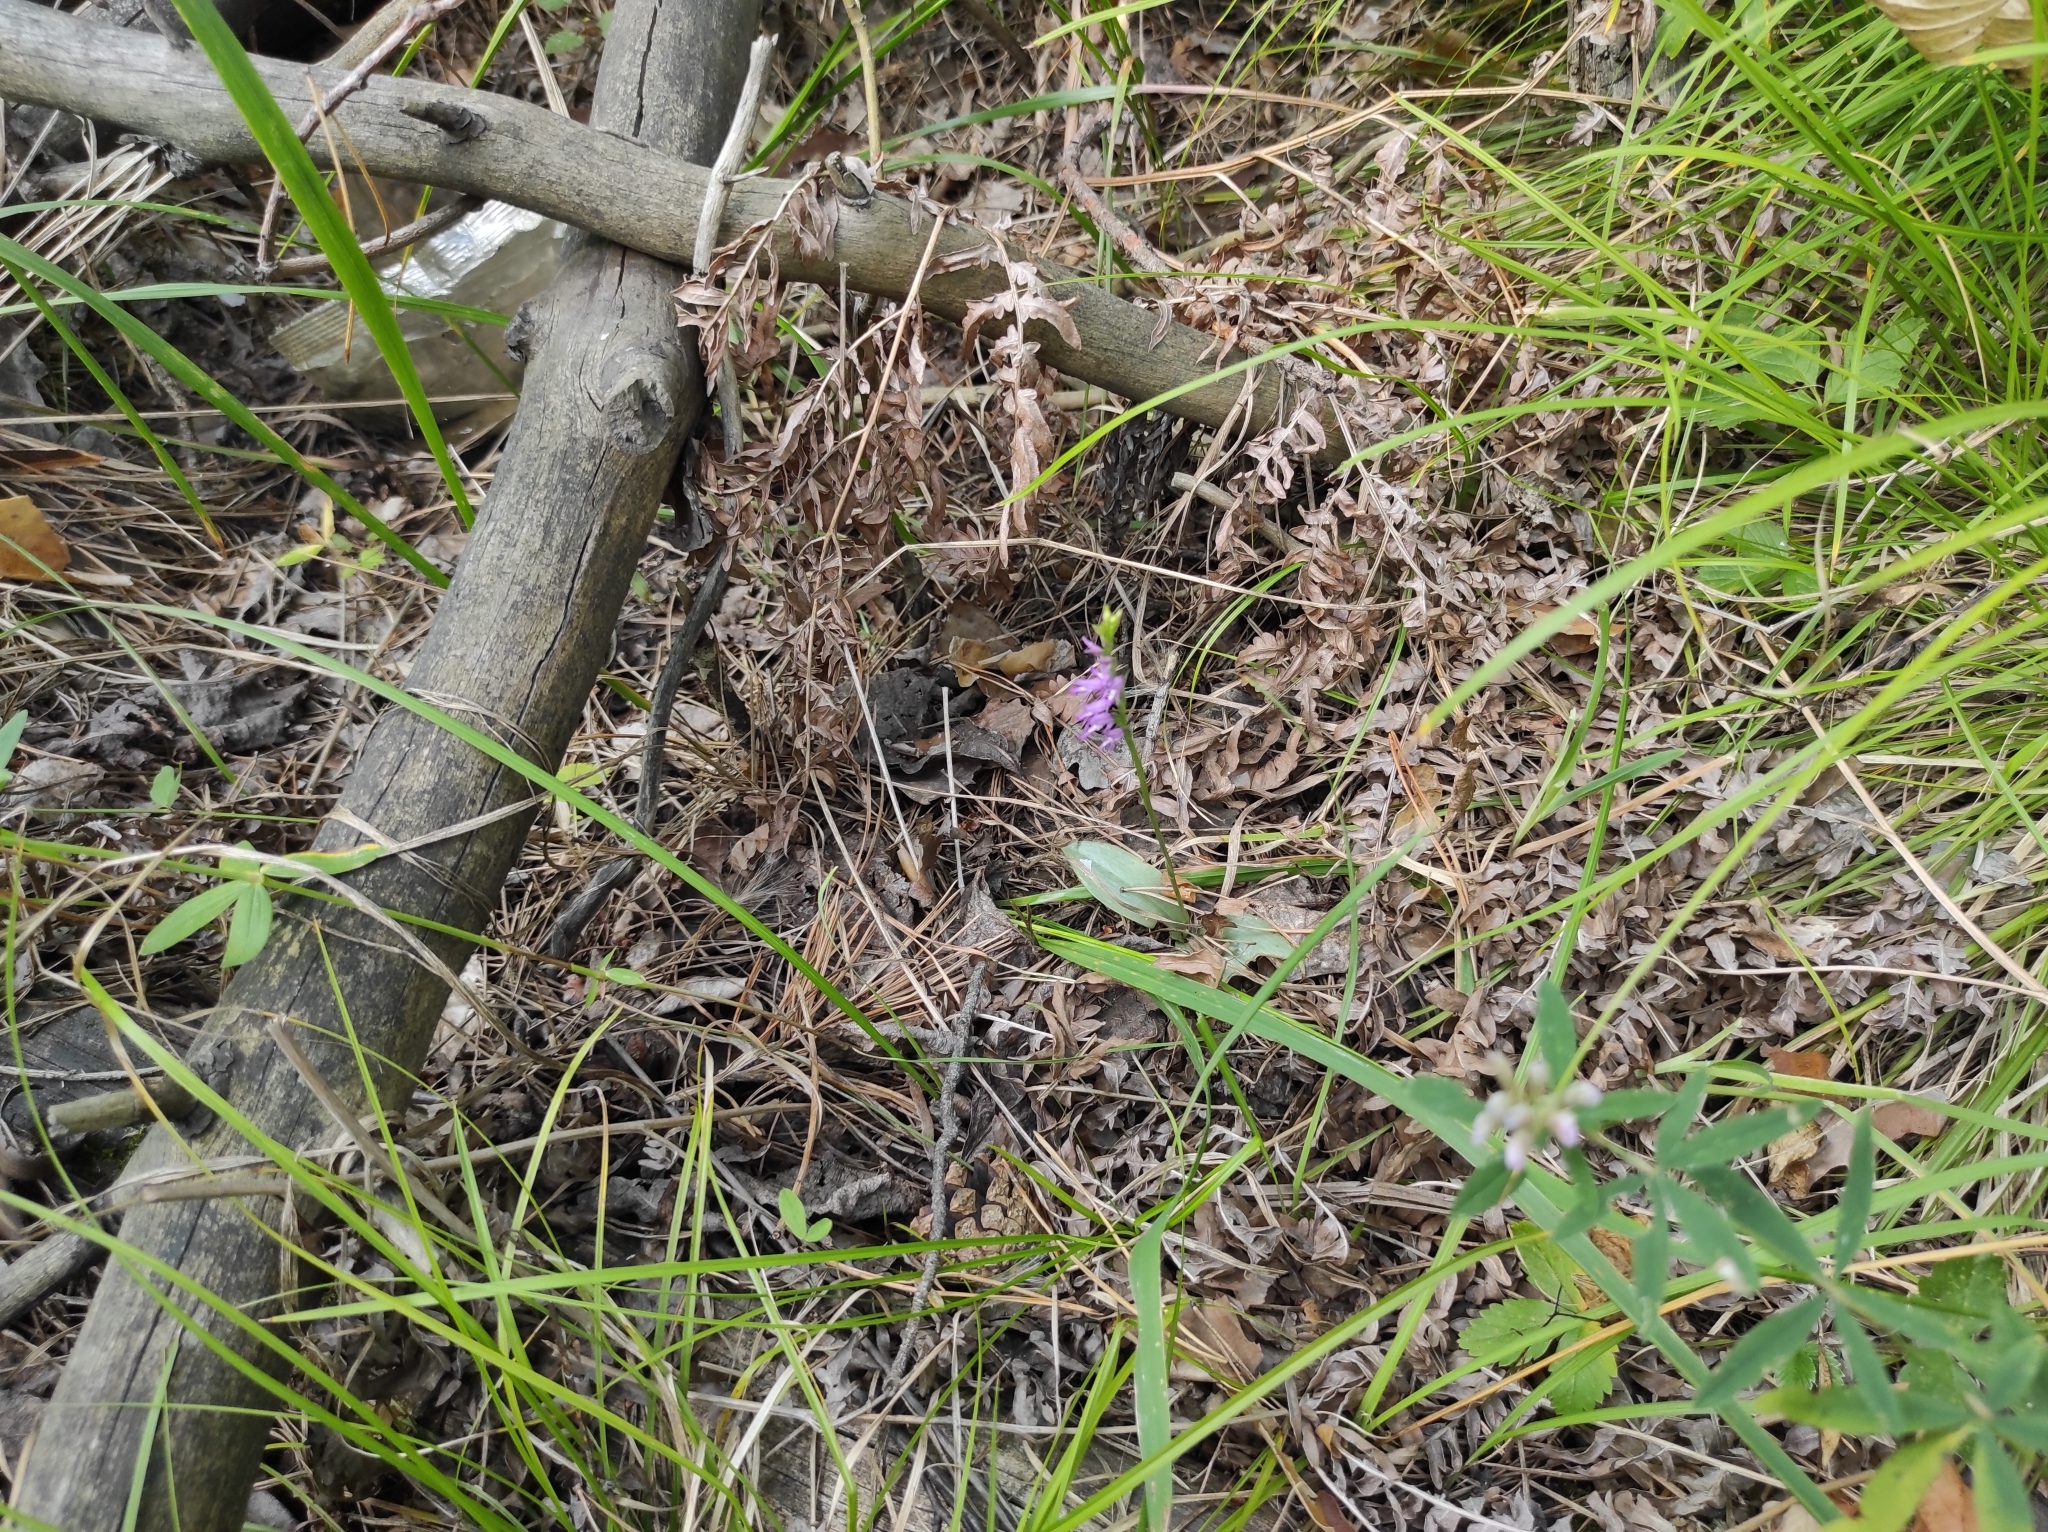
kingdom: Plantae
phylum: Tracheophyta
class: Liliopsida
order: Asparagales
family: Orchidaceae
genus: Hemipilia
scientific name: Hemipilia cucullata
